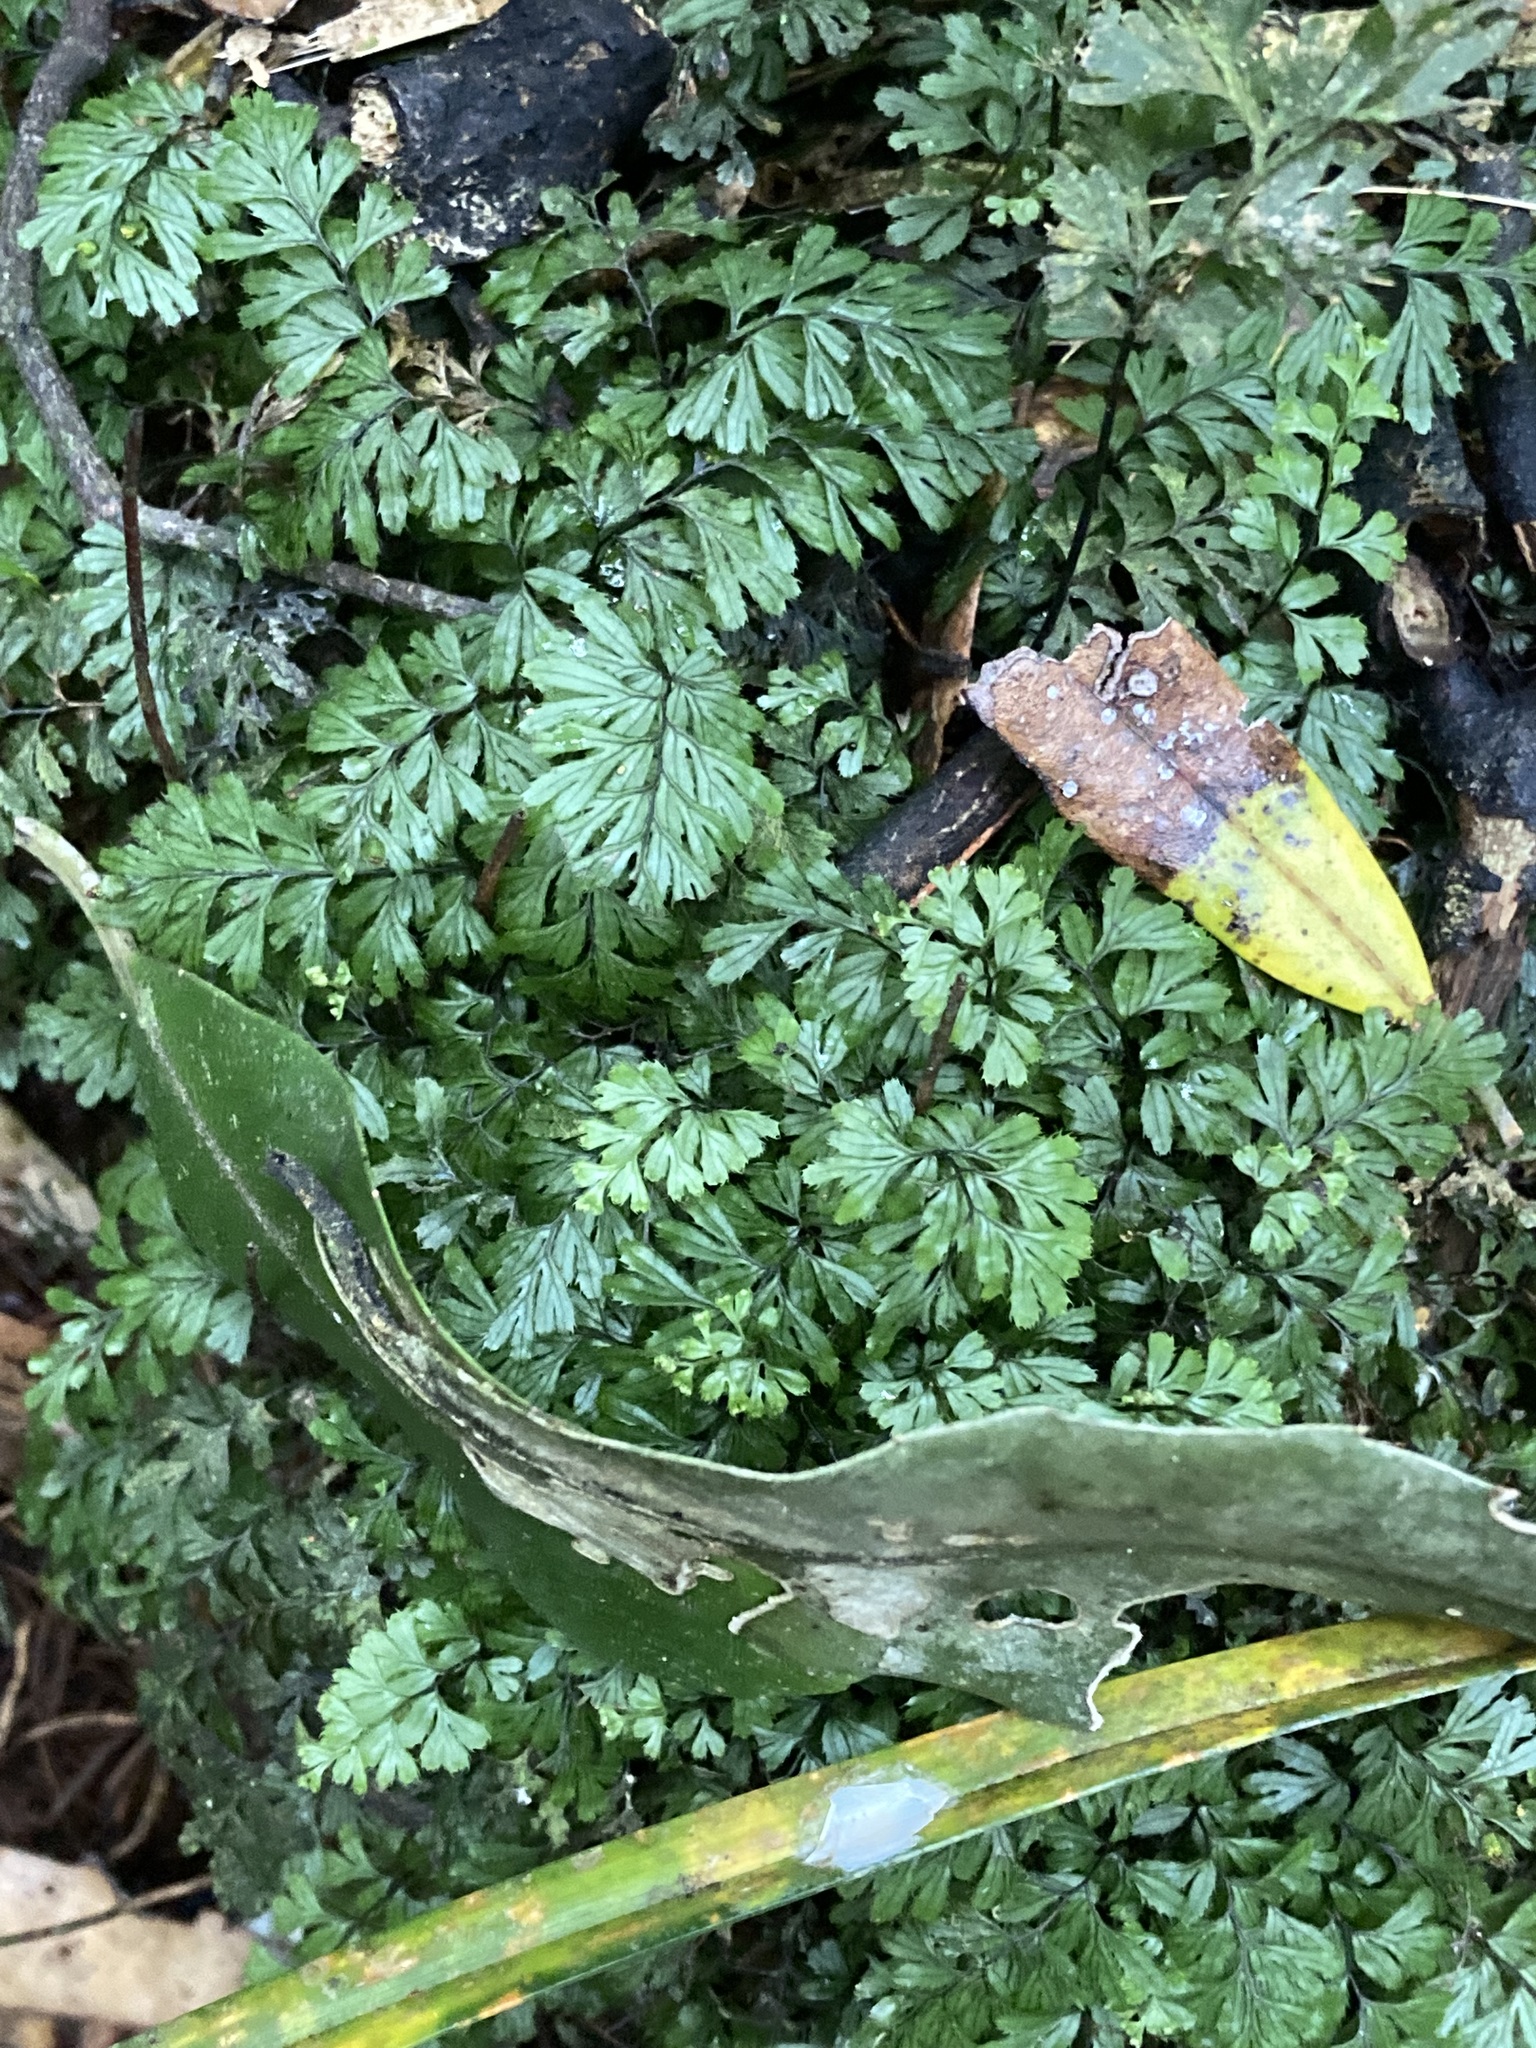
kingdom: Plantae
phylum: Tracheophyta
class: Polypodiopsida
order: Hymenophyllales
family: Hymenophyllaceae
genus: Hymenophyllum
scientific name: Hymenophyllum revolutum
